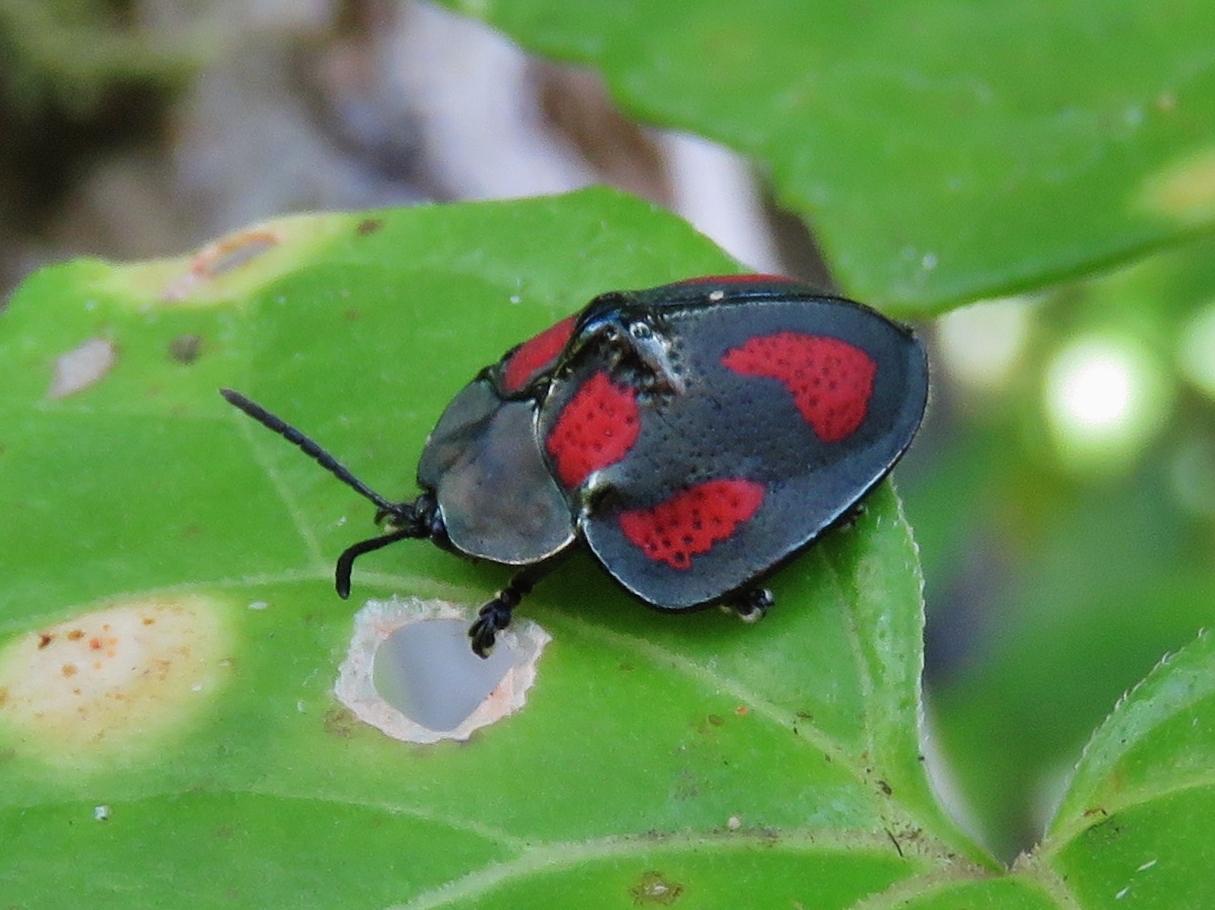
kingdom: Animalia
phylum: Arthropoda
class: Insecta
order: Coleoptera
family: Chrysomelidae
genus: Stolas
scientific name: Stolas punicea
